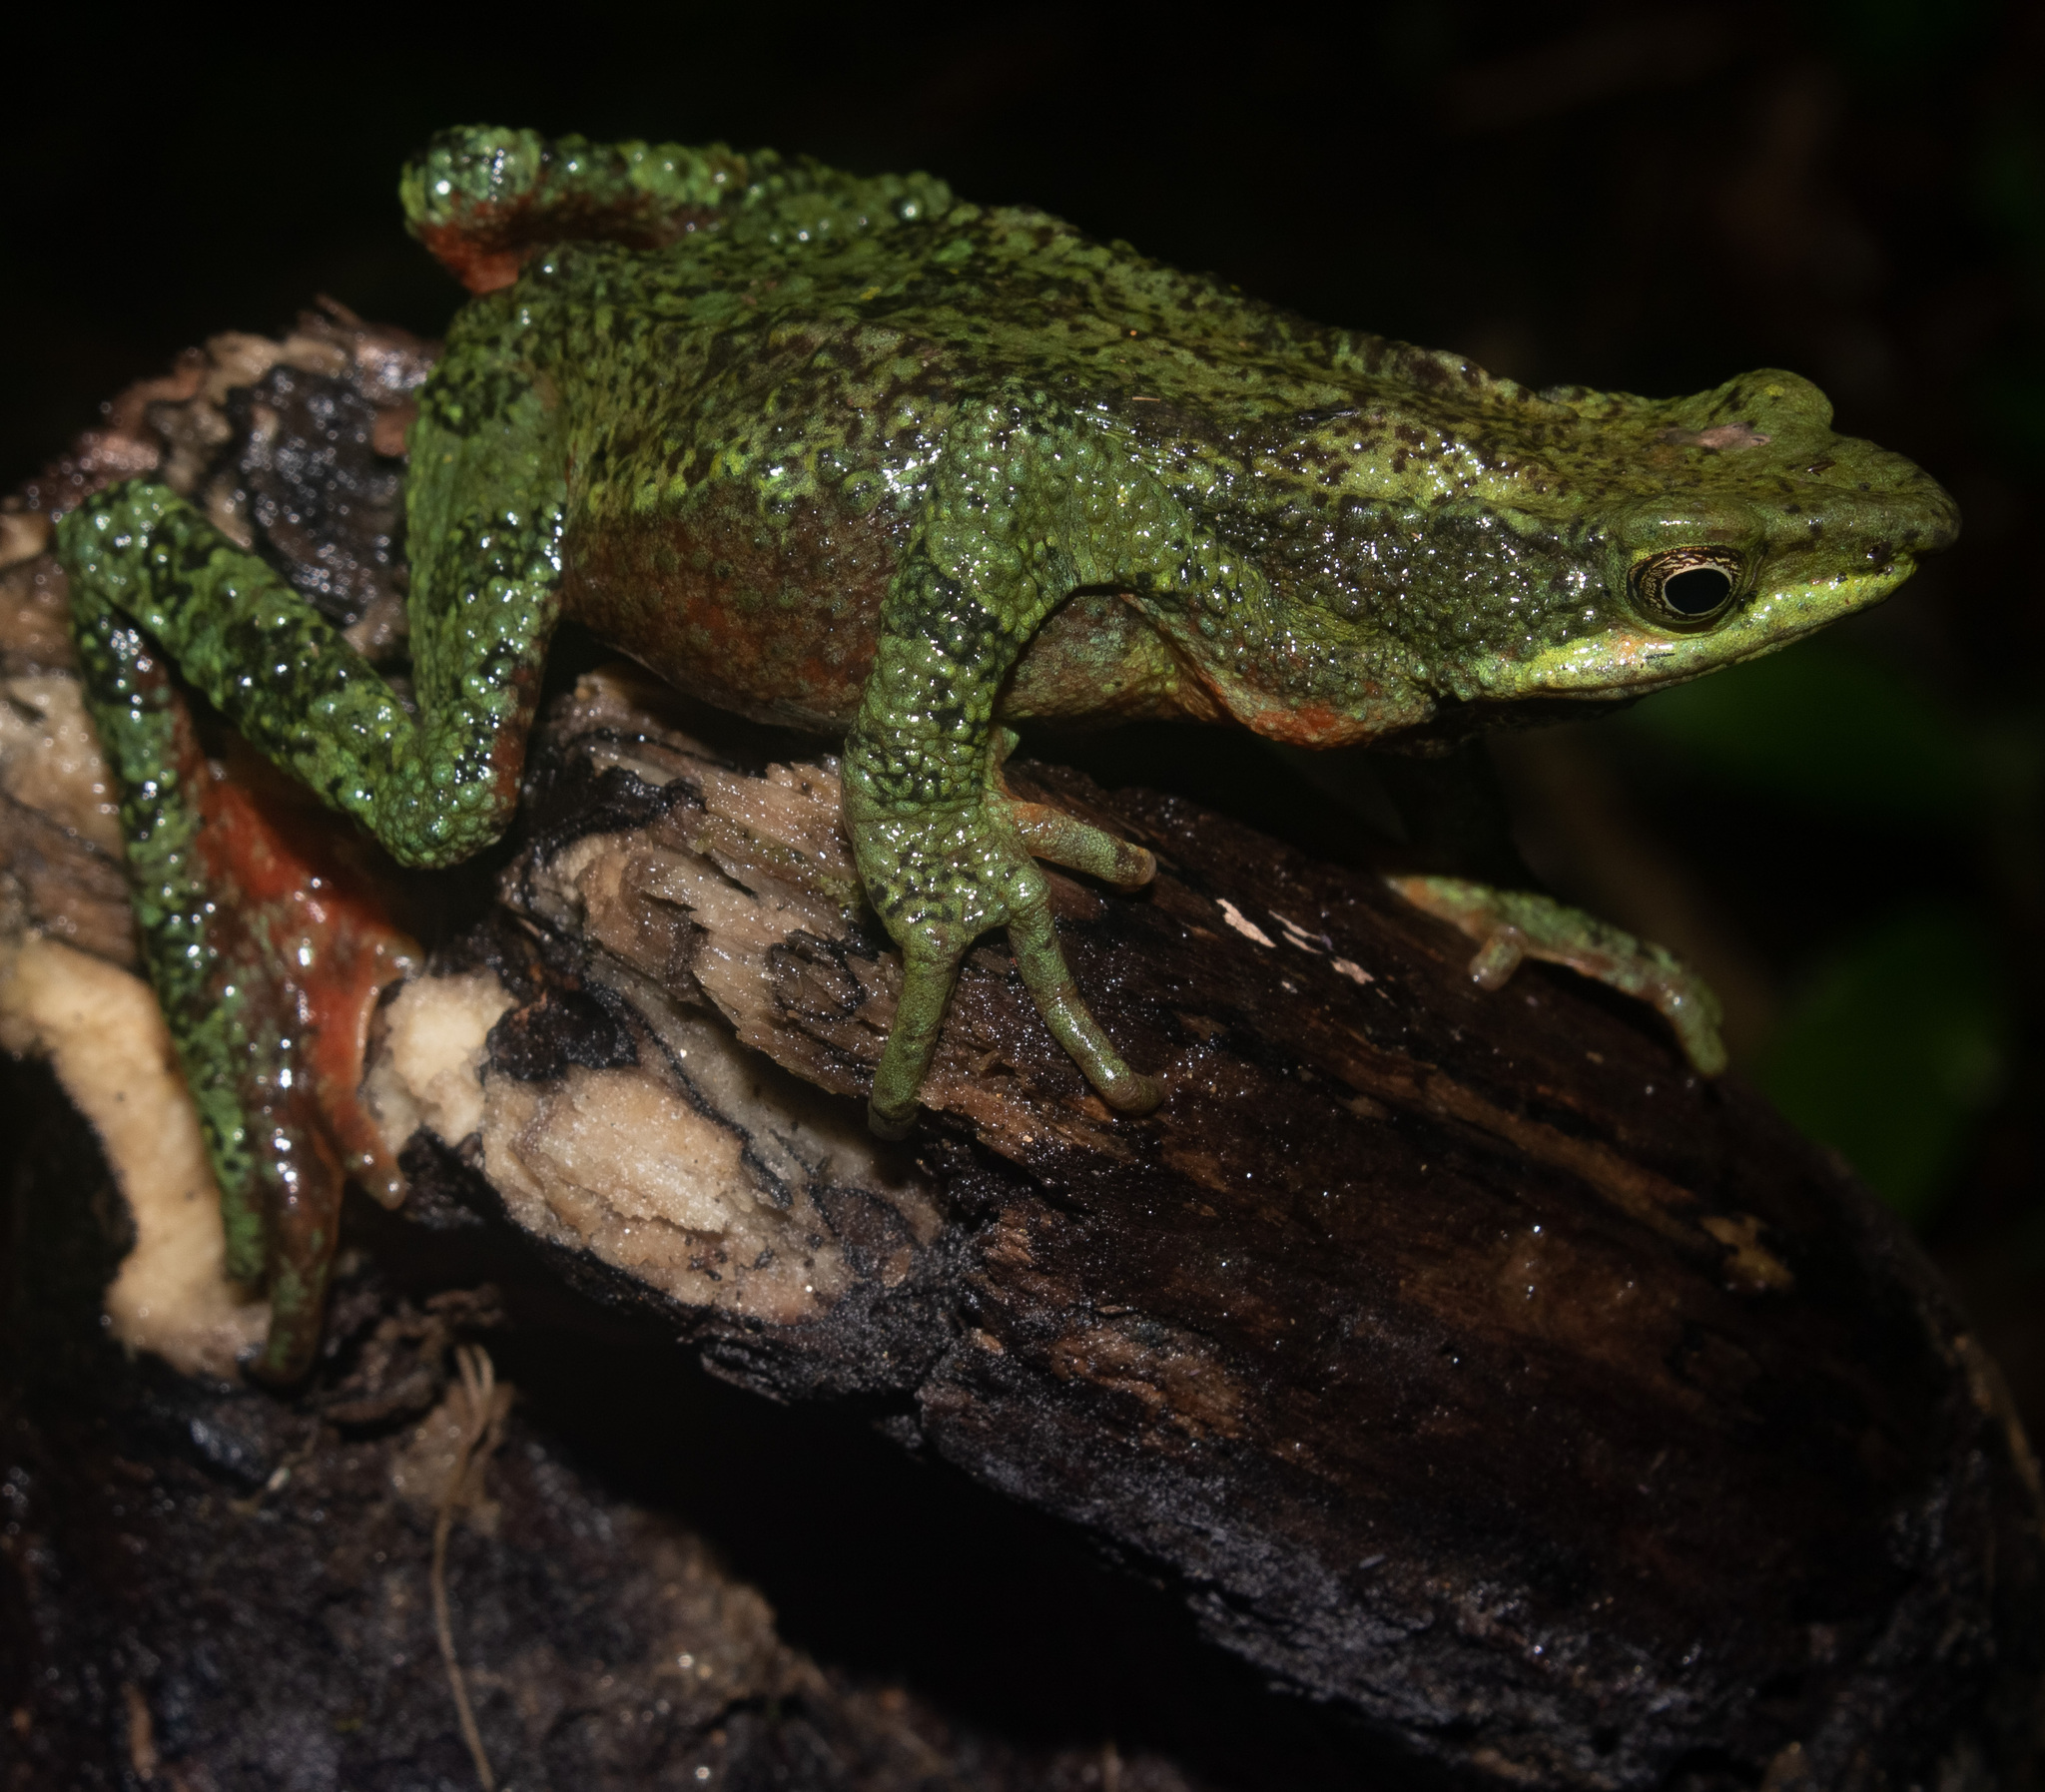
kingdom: Animalia
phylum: Chordata
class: Amphibia
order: Anura
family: Bufonidae
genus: Atelopus
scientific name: Atelopus laetissimus
